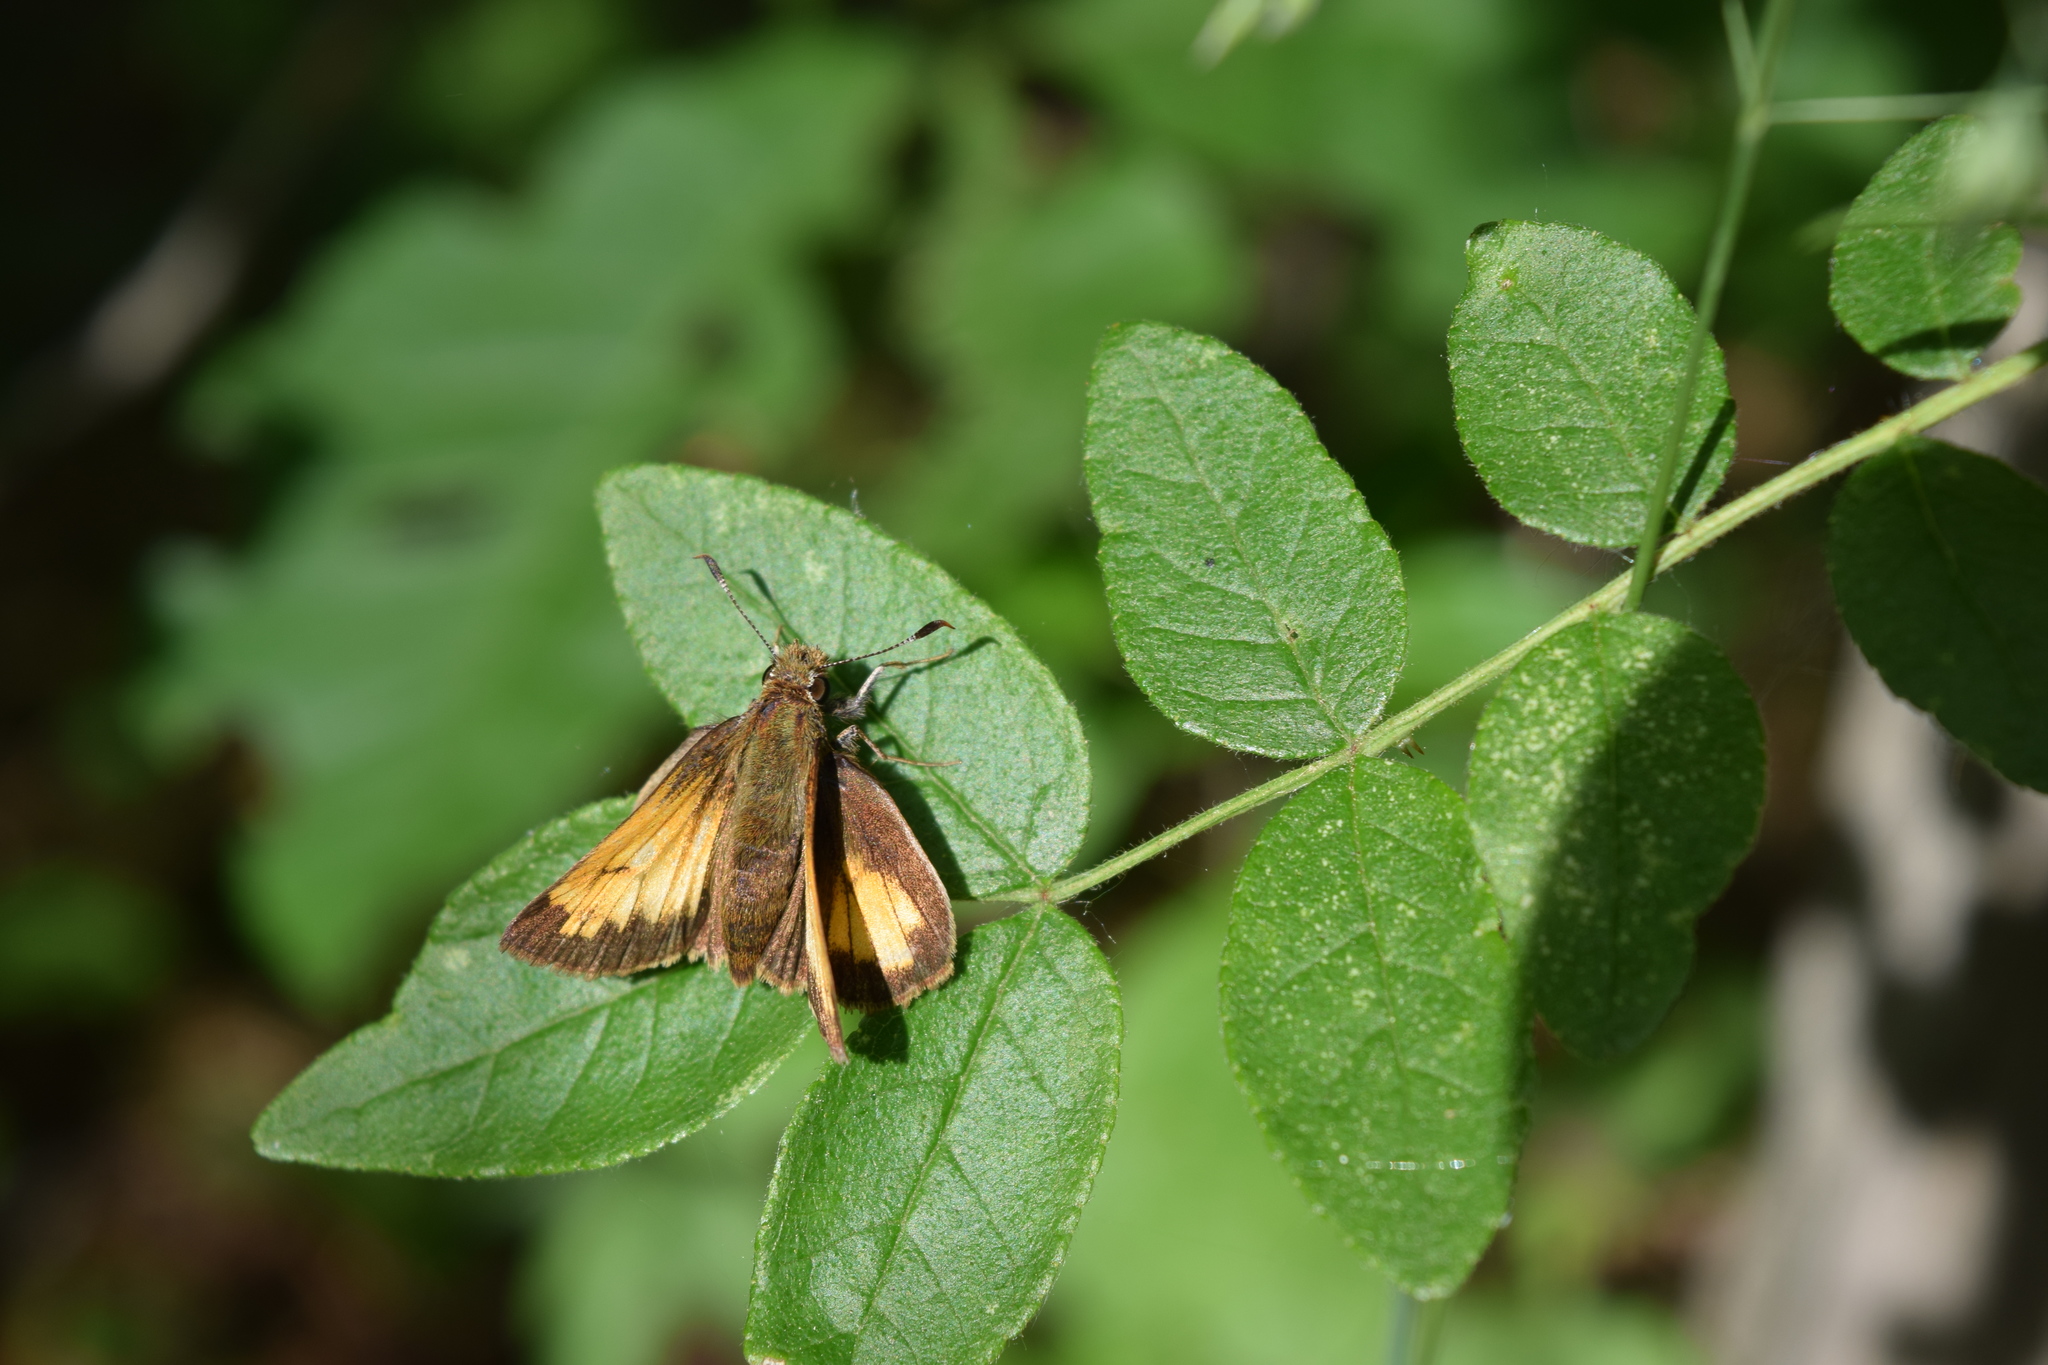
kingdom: Animalia
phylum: Arthropoda
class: Insecta
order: Lepidoptera
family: Hesperiidae
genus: Lon
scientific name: Lon hobomok
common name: Hobomok skipper
